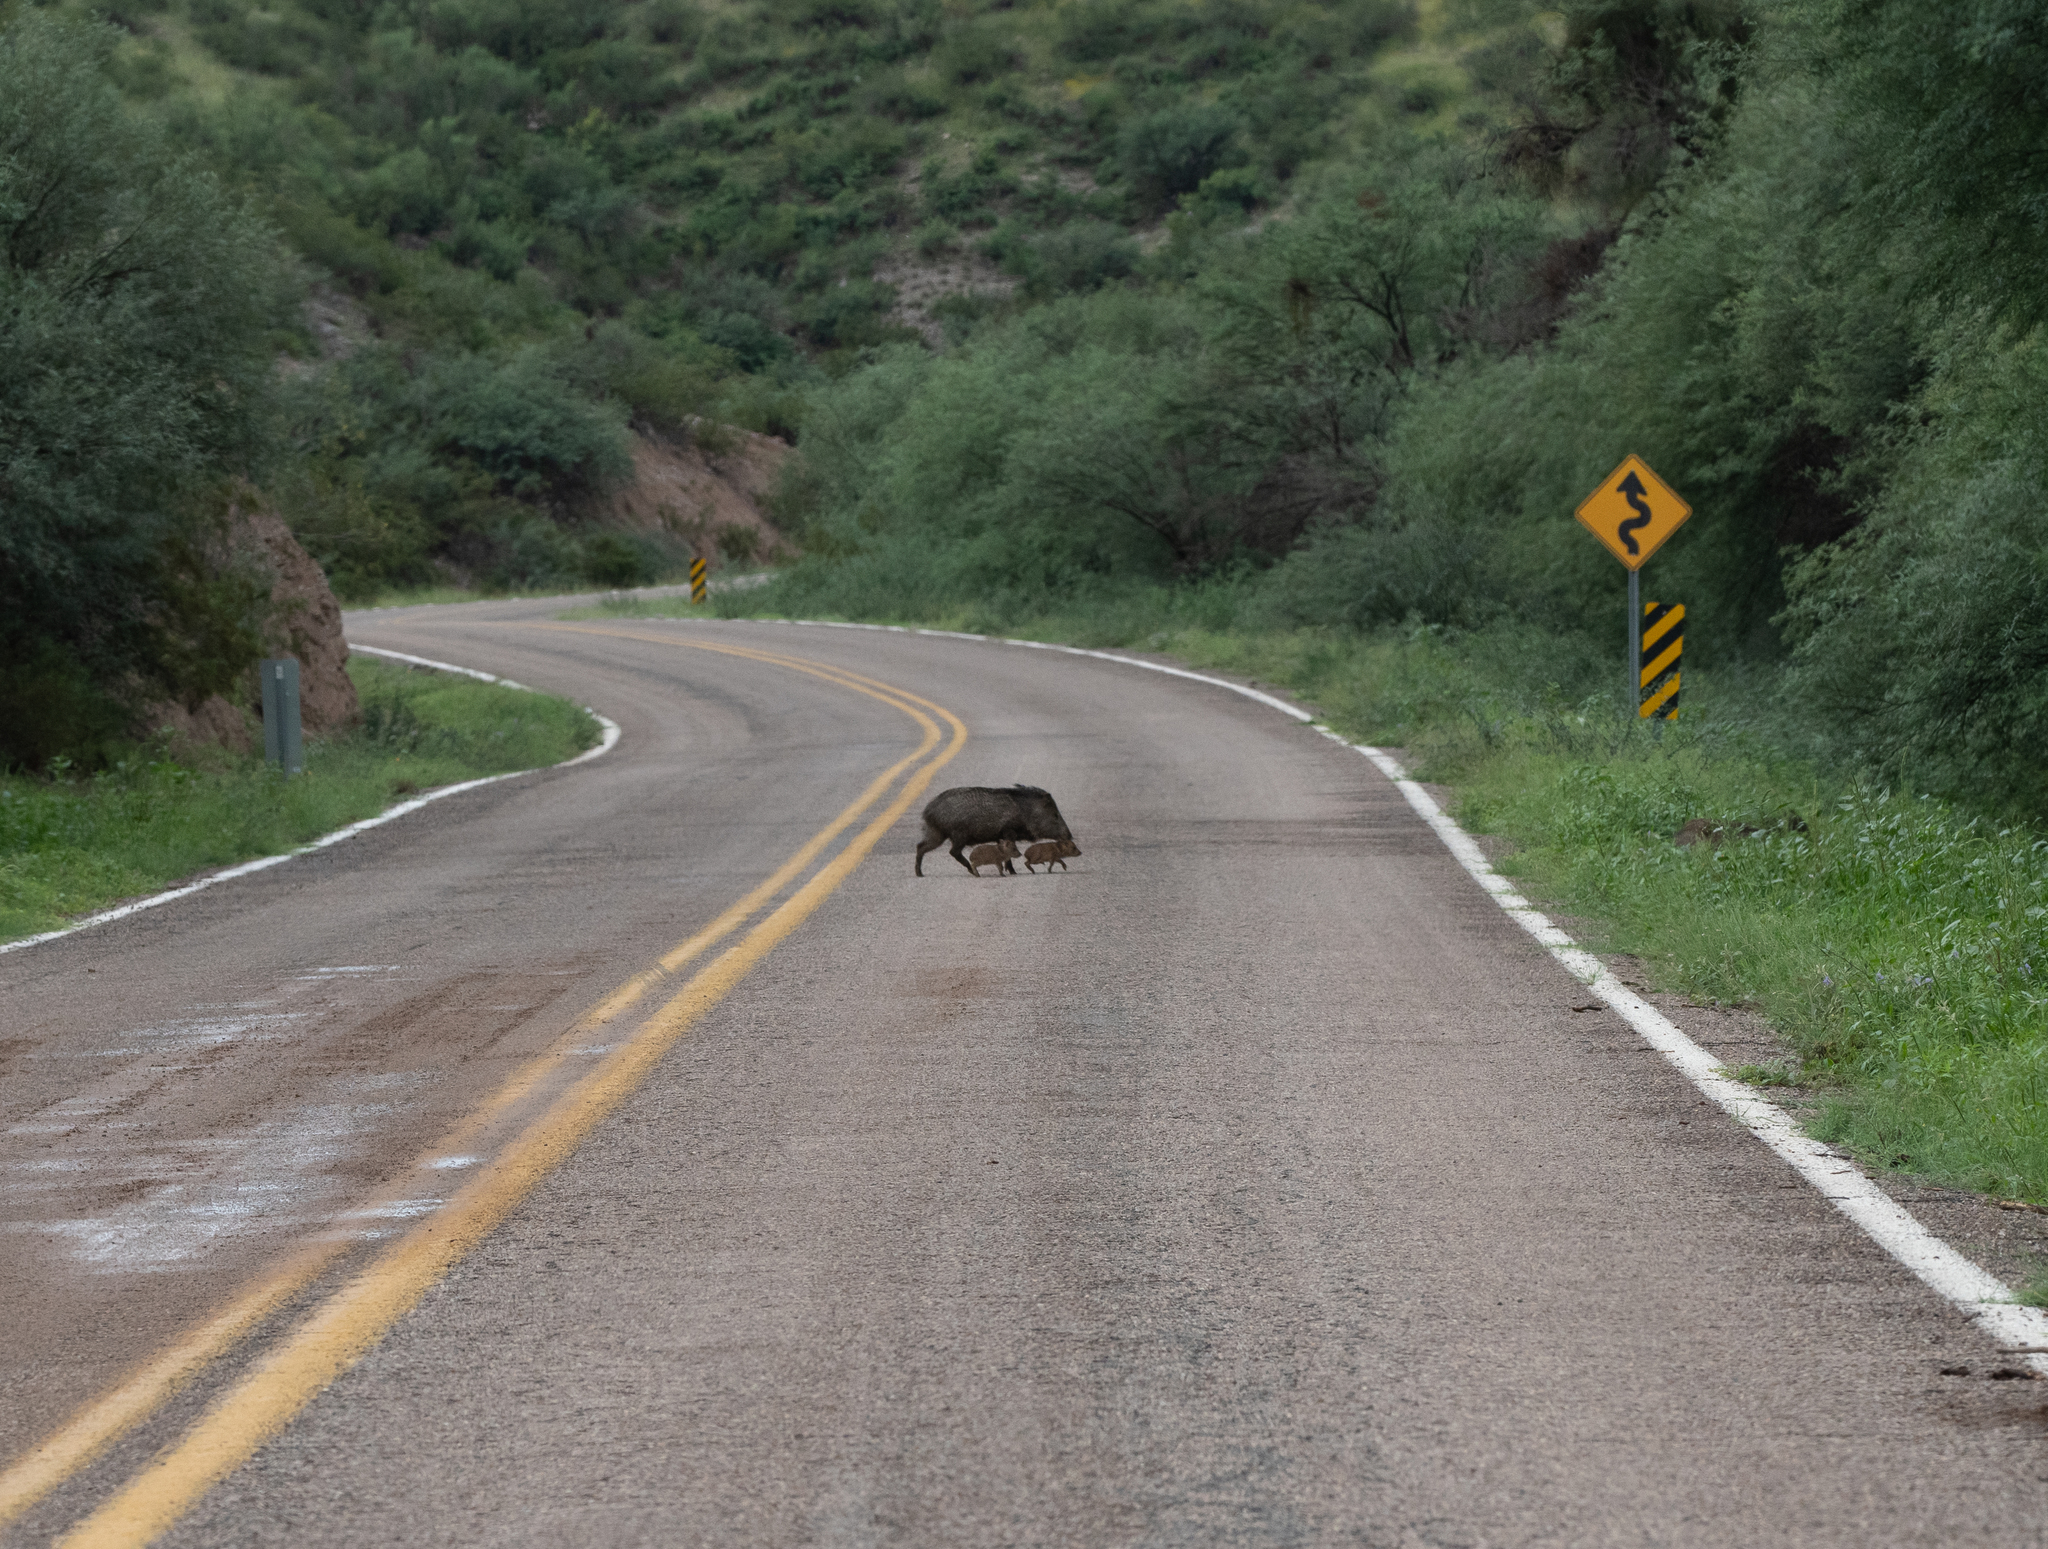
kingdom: Animalia
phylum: Chordata
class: Mammalia
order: Artiodactyla
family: Tayassuidae
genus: Pecari
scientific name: Pecari tajacu
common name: Collared peccary
